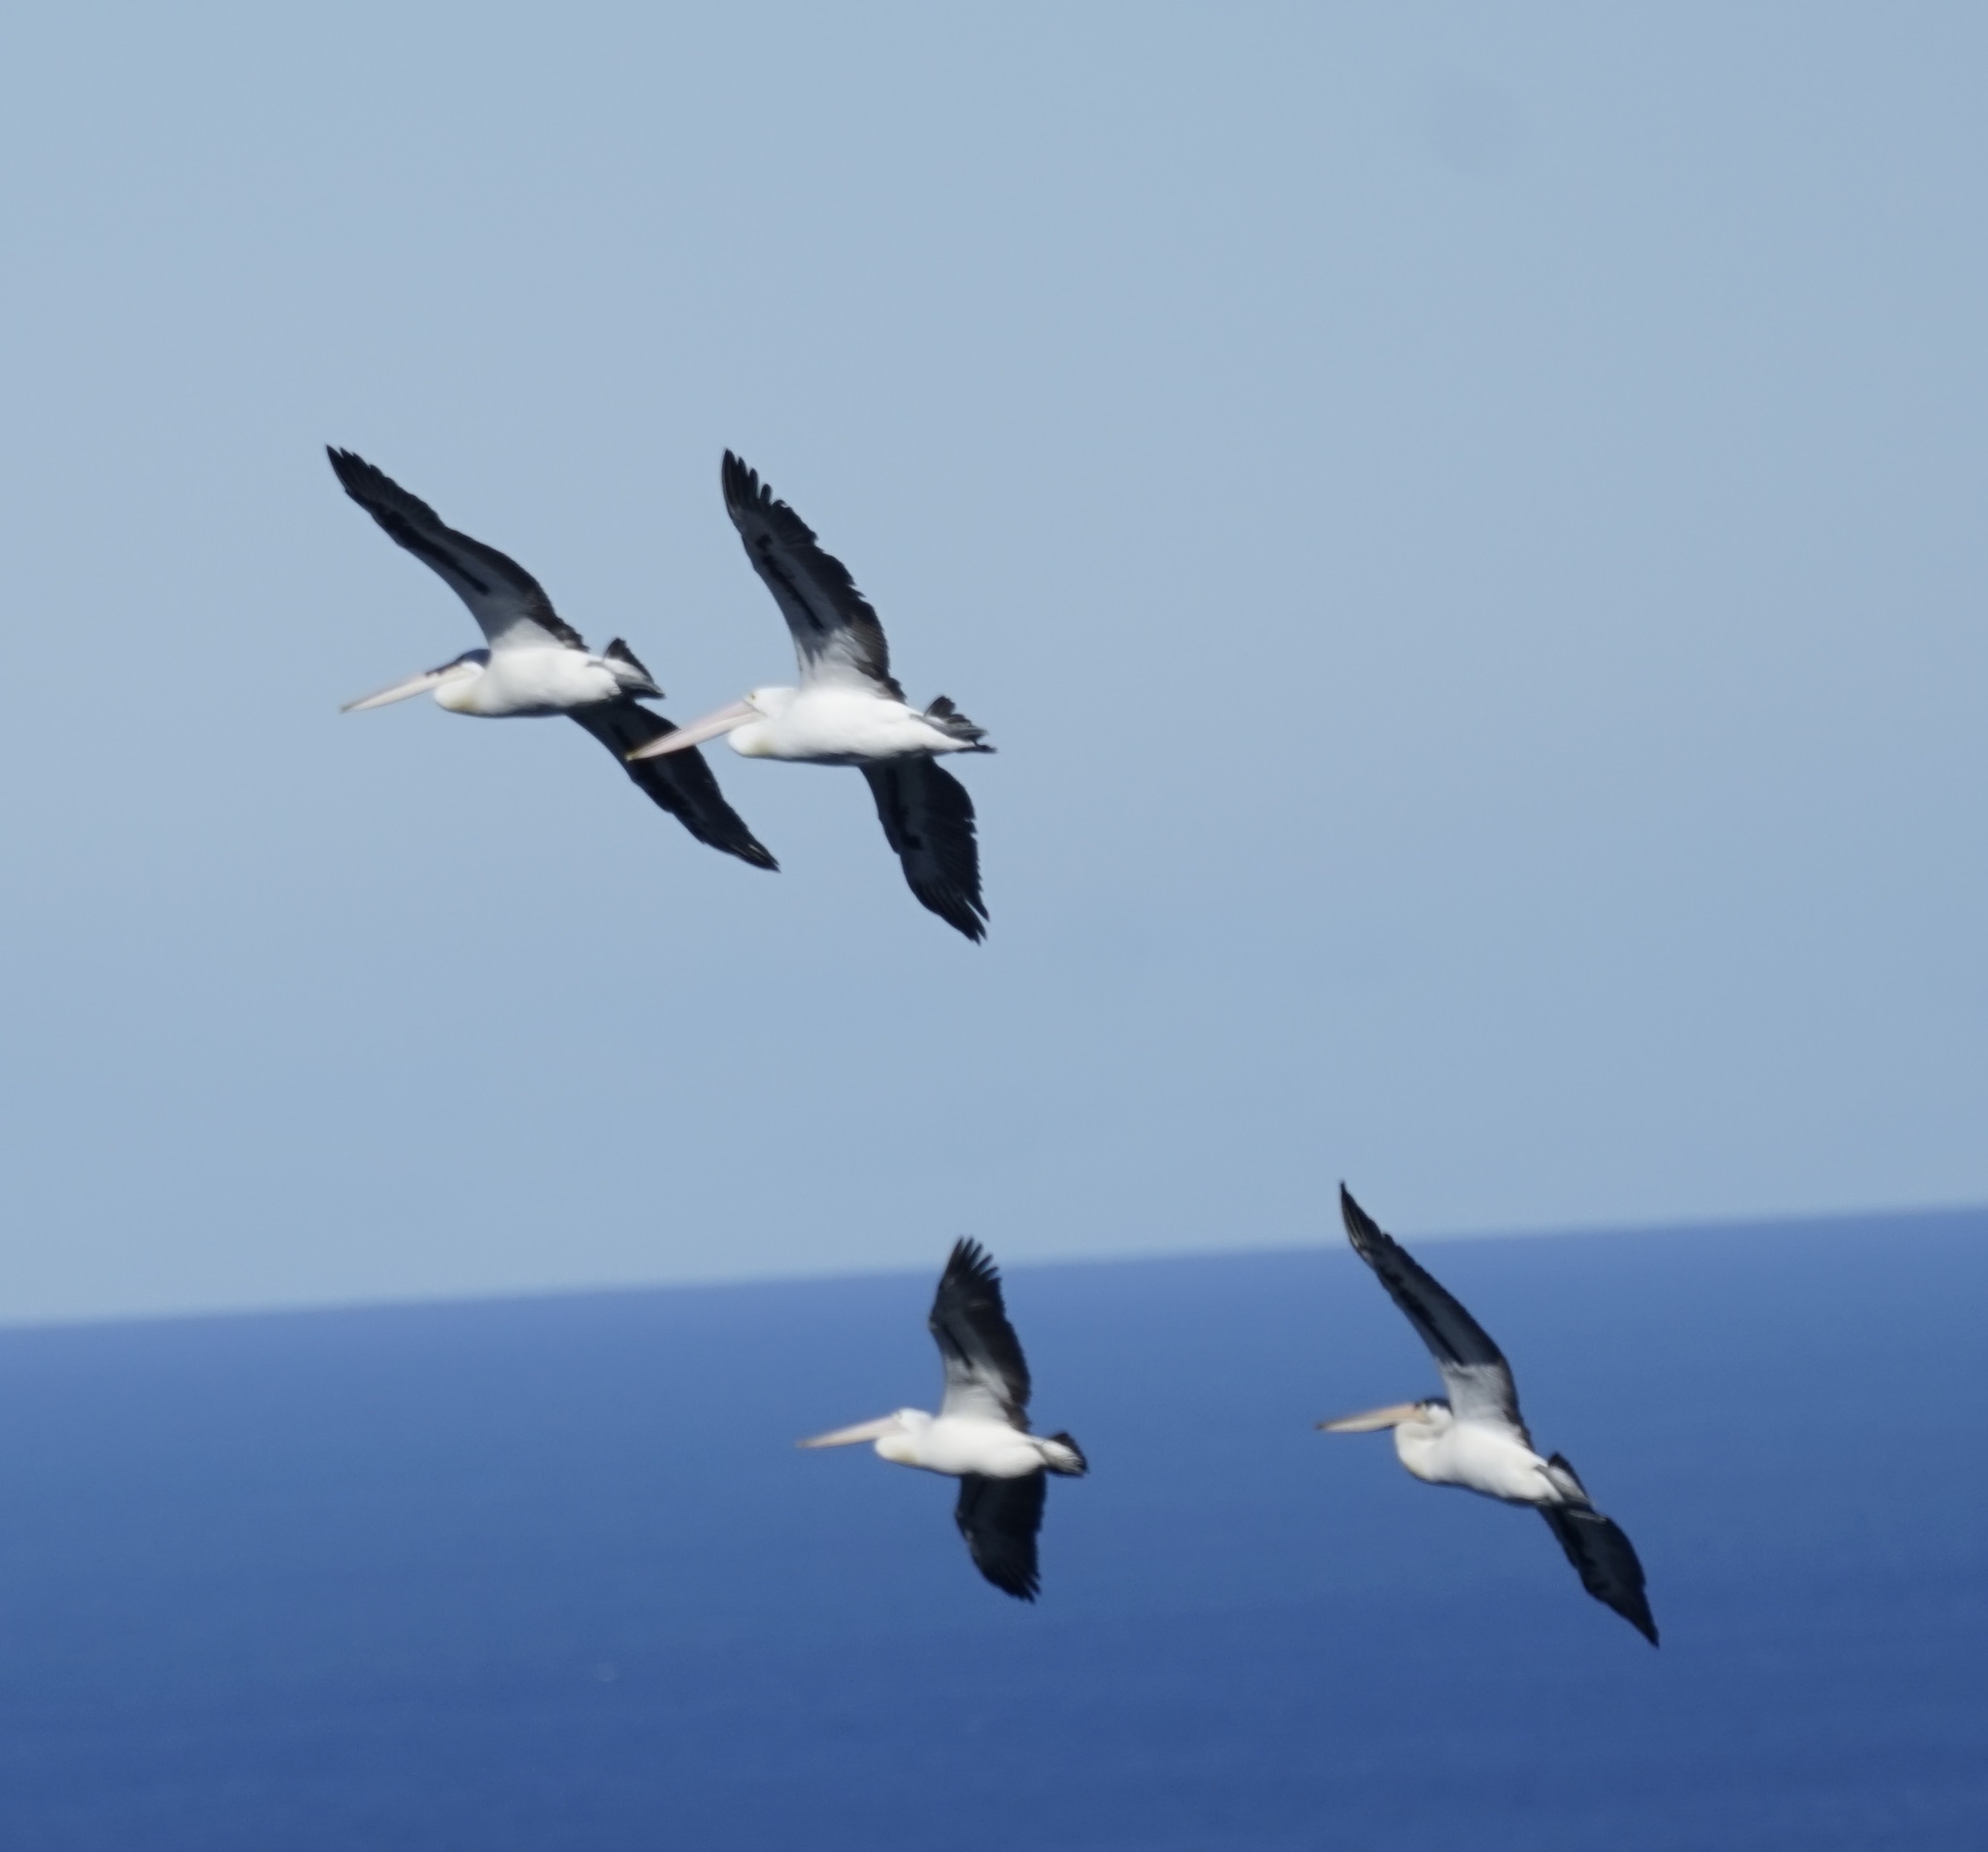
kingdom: Animalia
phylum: Chordata
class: Aves
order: Pelecaniformes
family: Pelecanidae
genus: Pelecanus
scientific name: Pelecanus conspicillatus
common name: Australian pelican
